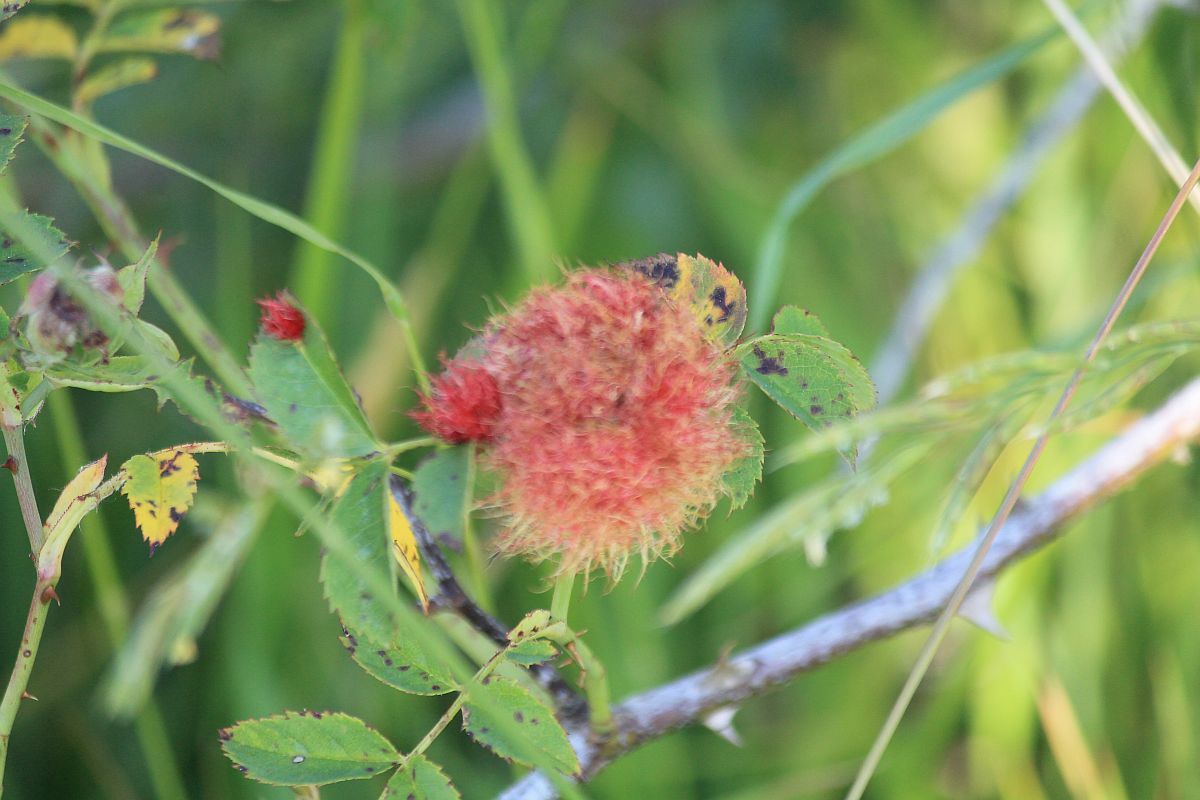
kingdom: Animalia
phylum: Arthropoda
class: Insecta
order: Hymenoptera
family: Cynipidae
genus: Diplolepis
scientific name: Diplolepis rosae
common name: Bedeguar gall
